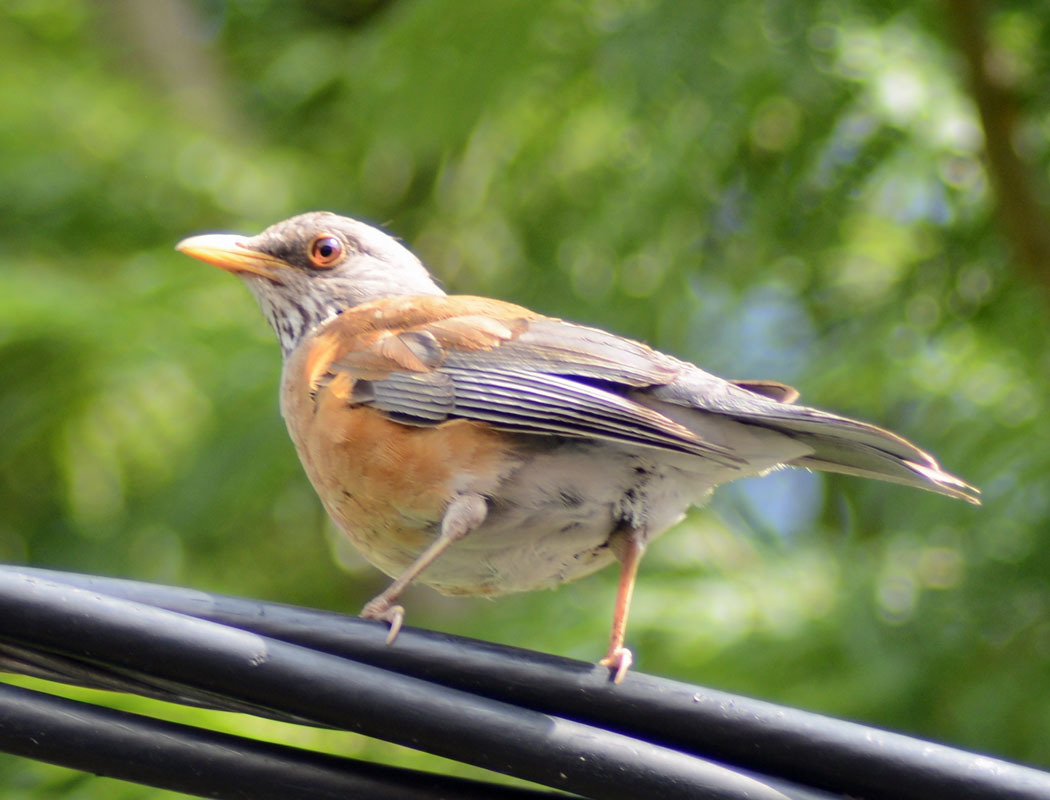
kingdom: Animalia
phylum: Chordata
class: Aves
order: Passeriformes
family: Turdidae
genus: Turdus
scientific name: Turdus rufopalliatus
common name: Rufous-backed robin
